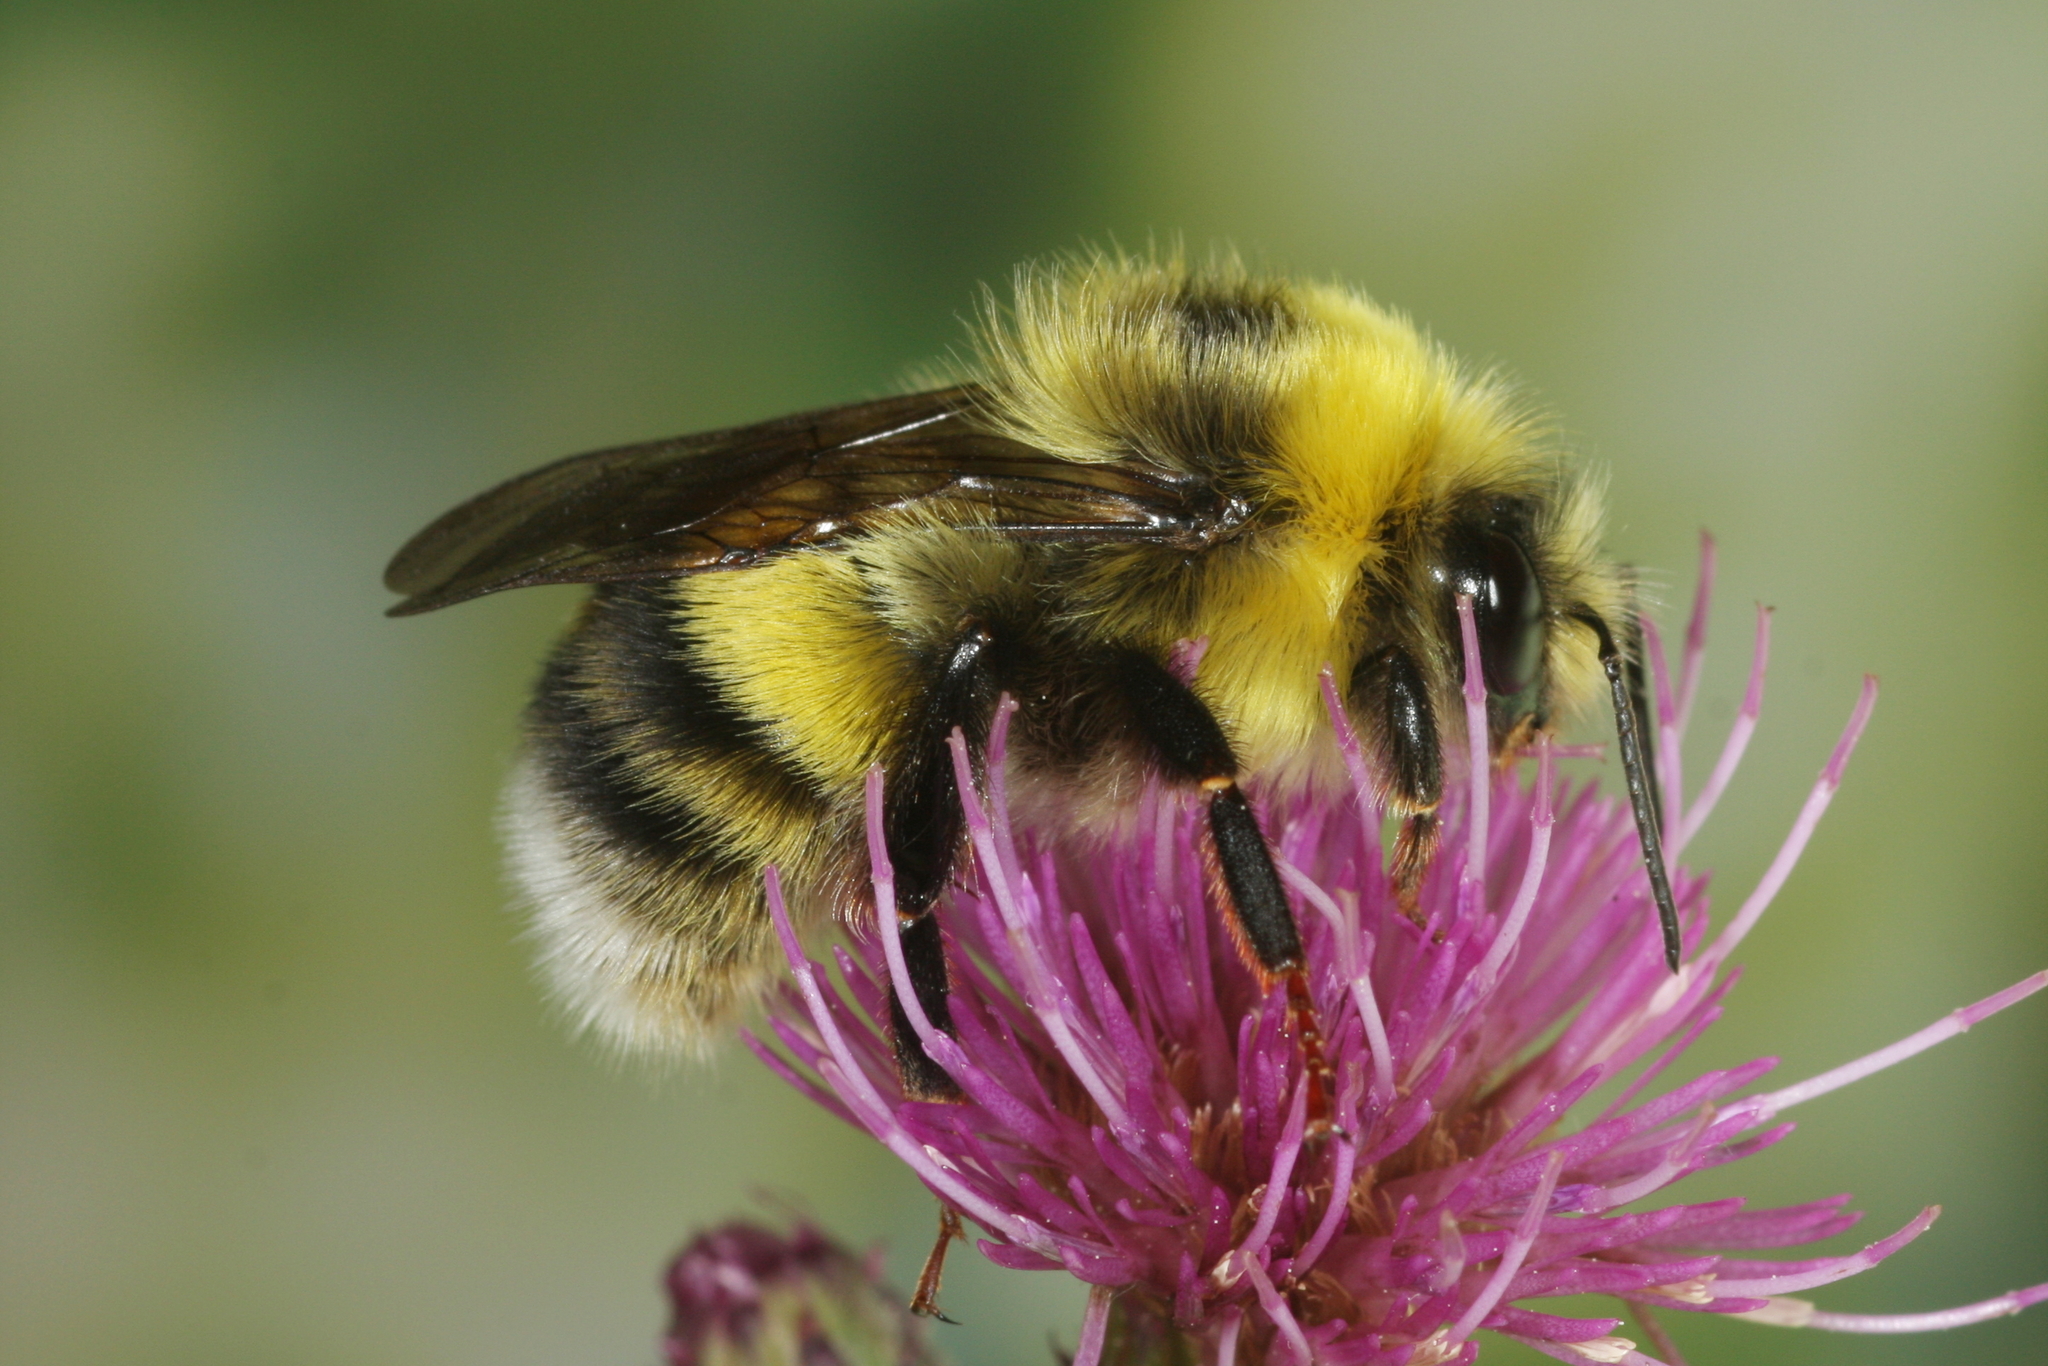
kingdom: Animalia
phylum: Arthropoda
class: Insecta
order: Hymenoptera
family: Apidae
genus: Bombus
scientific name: Bombus lucorum
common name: White-tailed bumblebee
